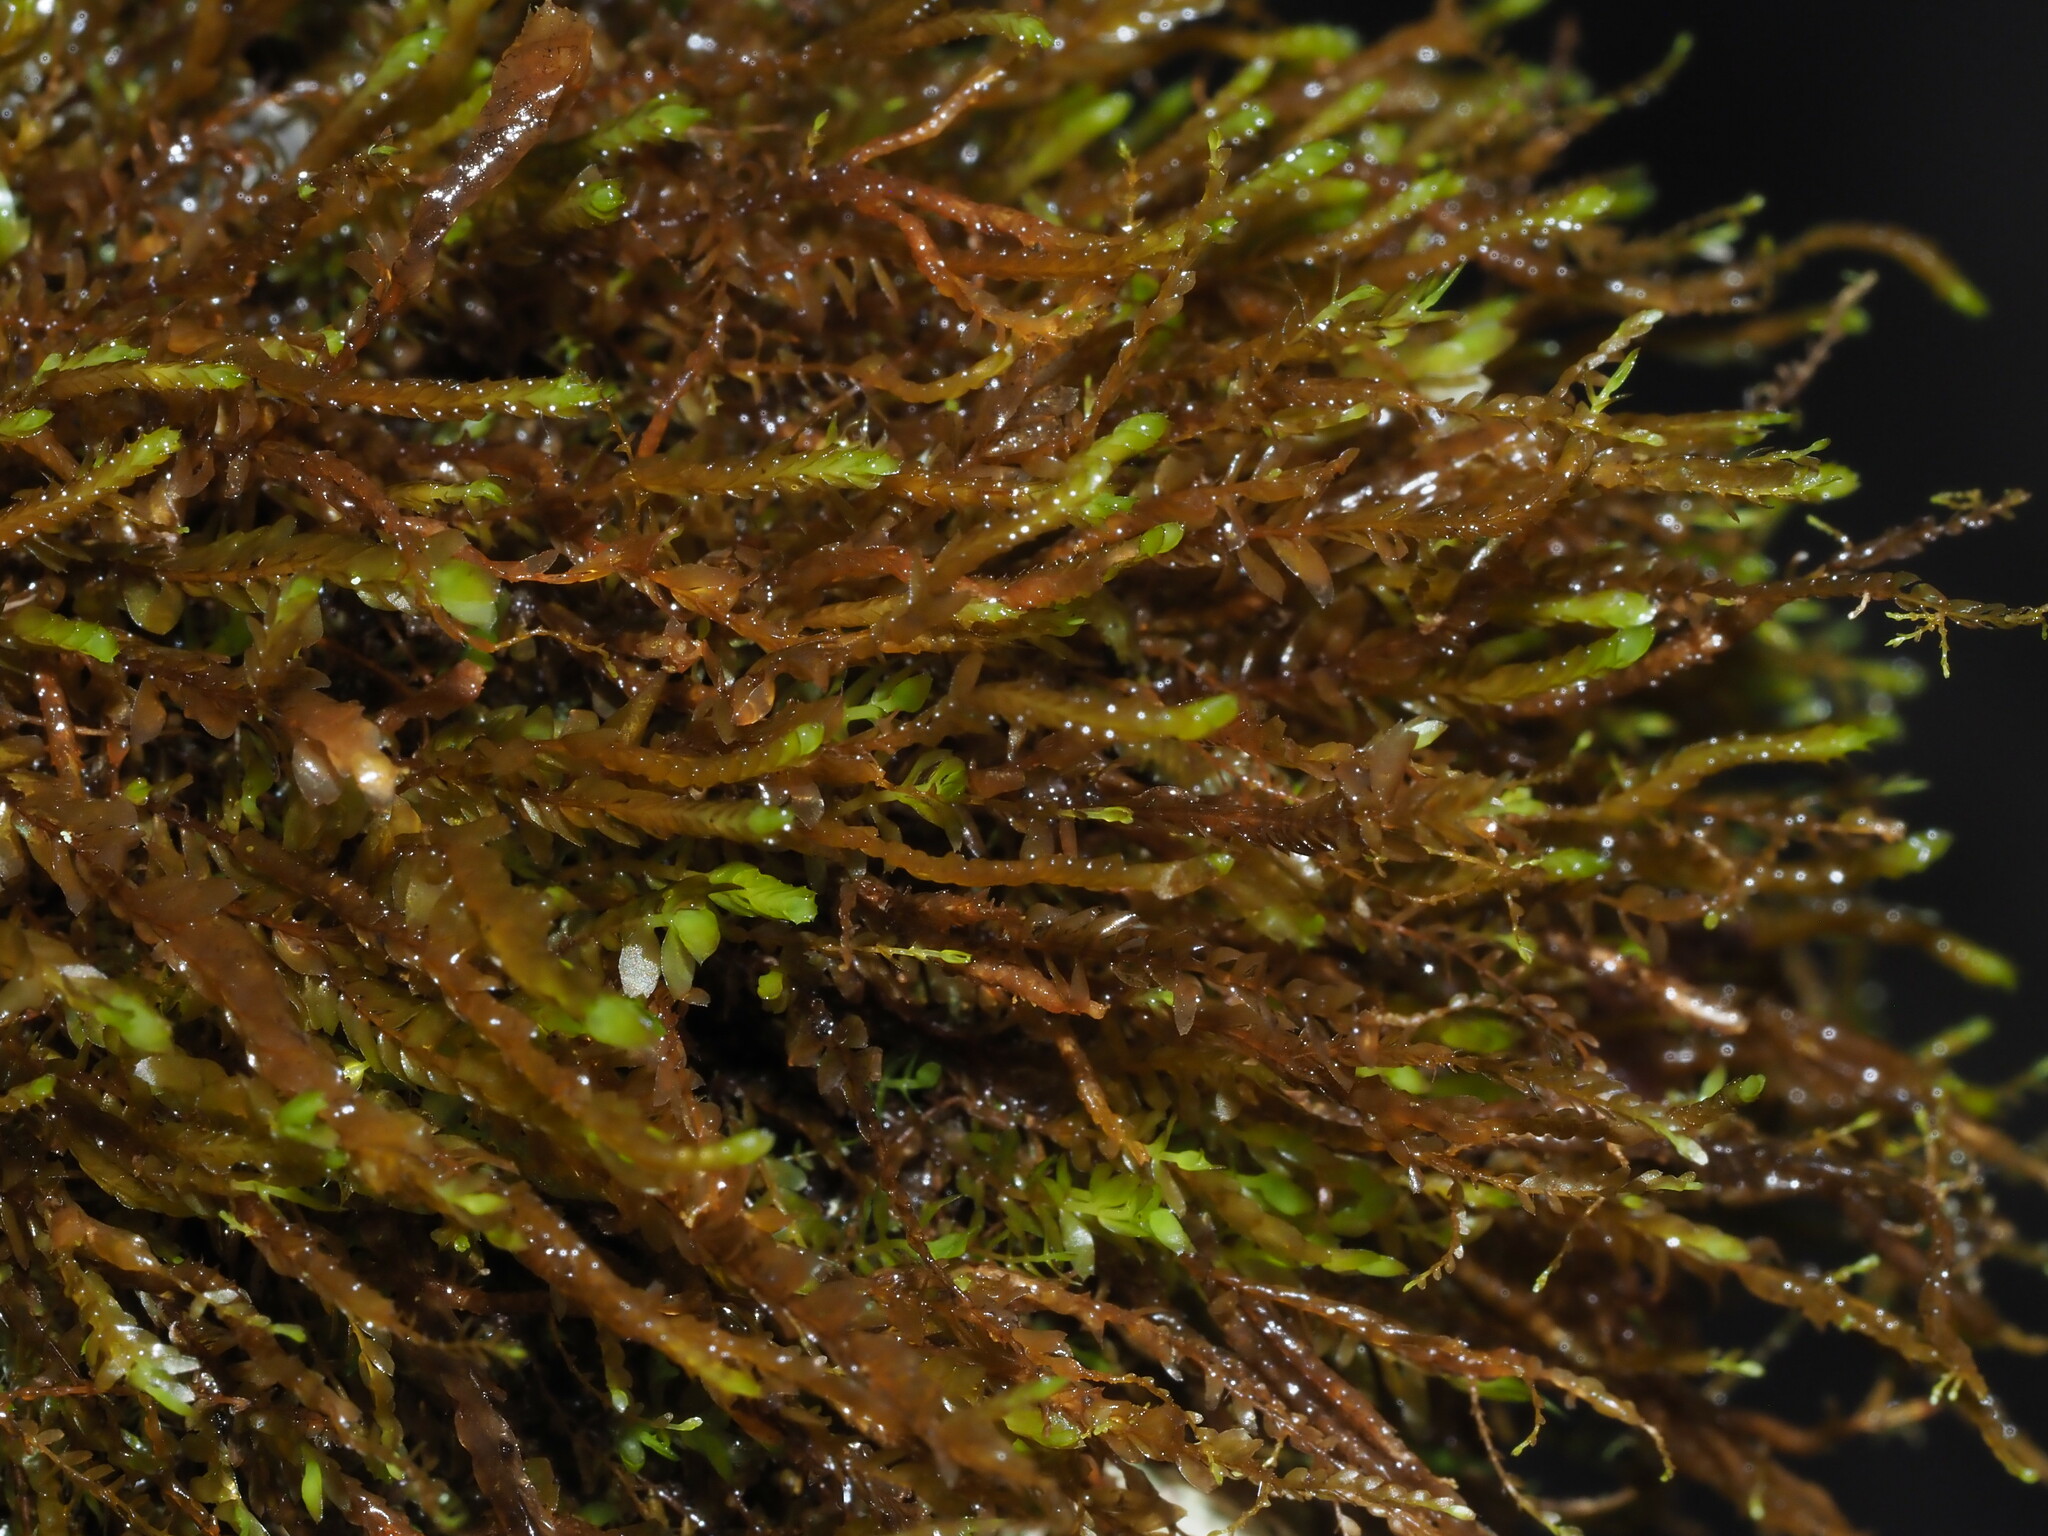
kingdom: Plantae
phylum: Marchantiophyta
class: Jungermanniopsida
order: Jungermanniales
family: Plagiochilaceae
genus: Chiastocaulon
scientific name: Chiastocaulon combinatum
